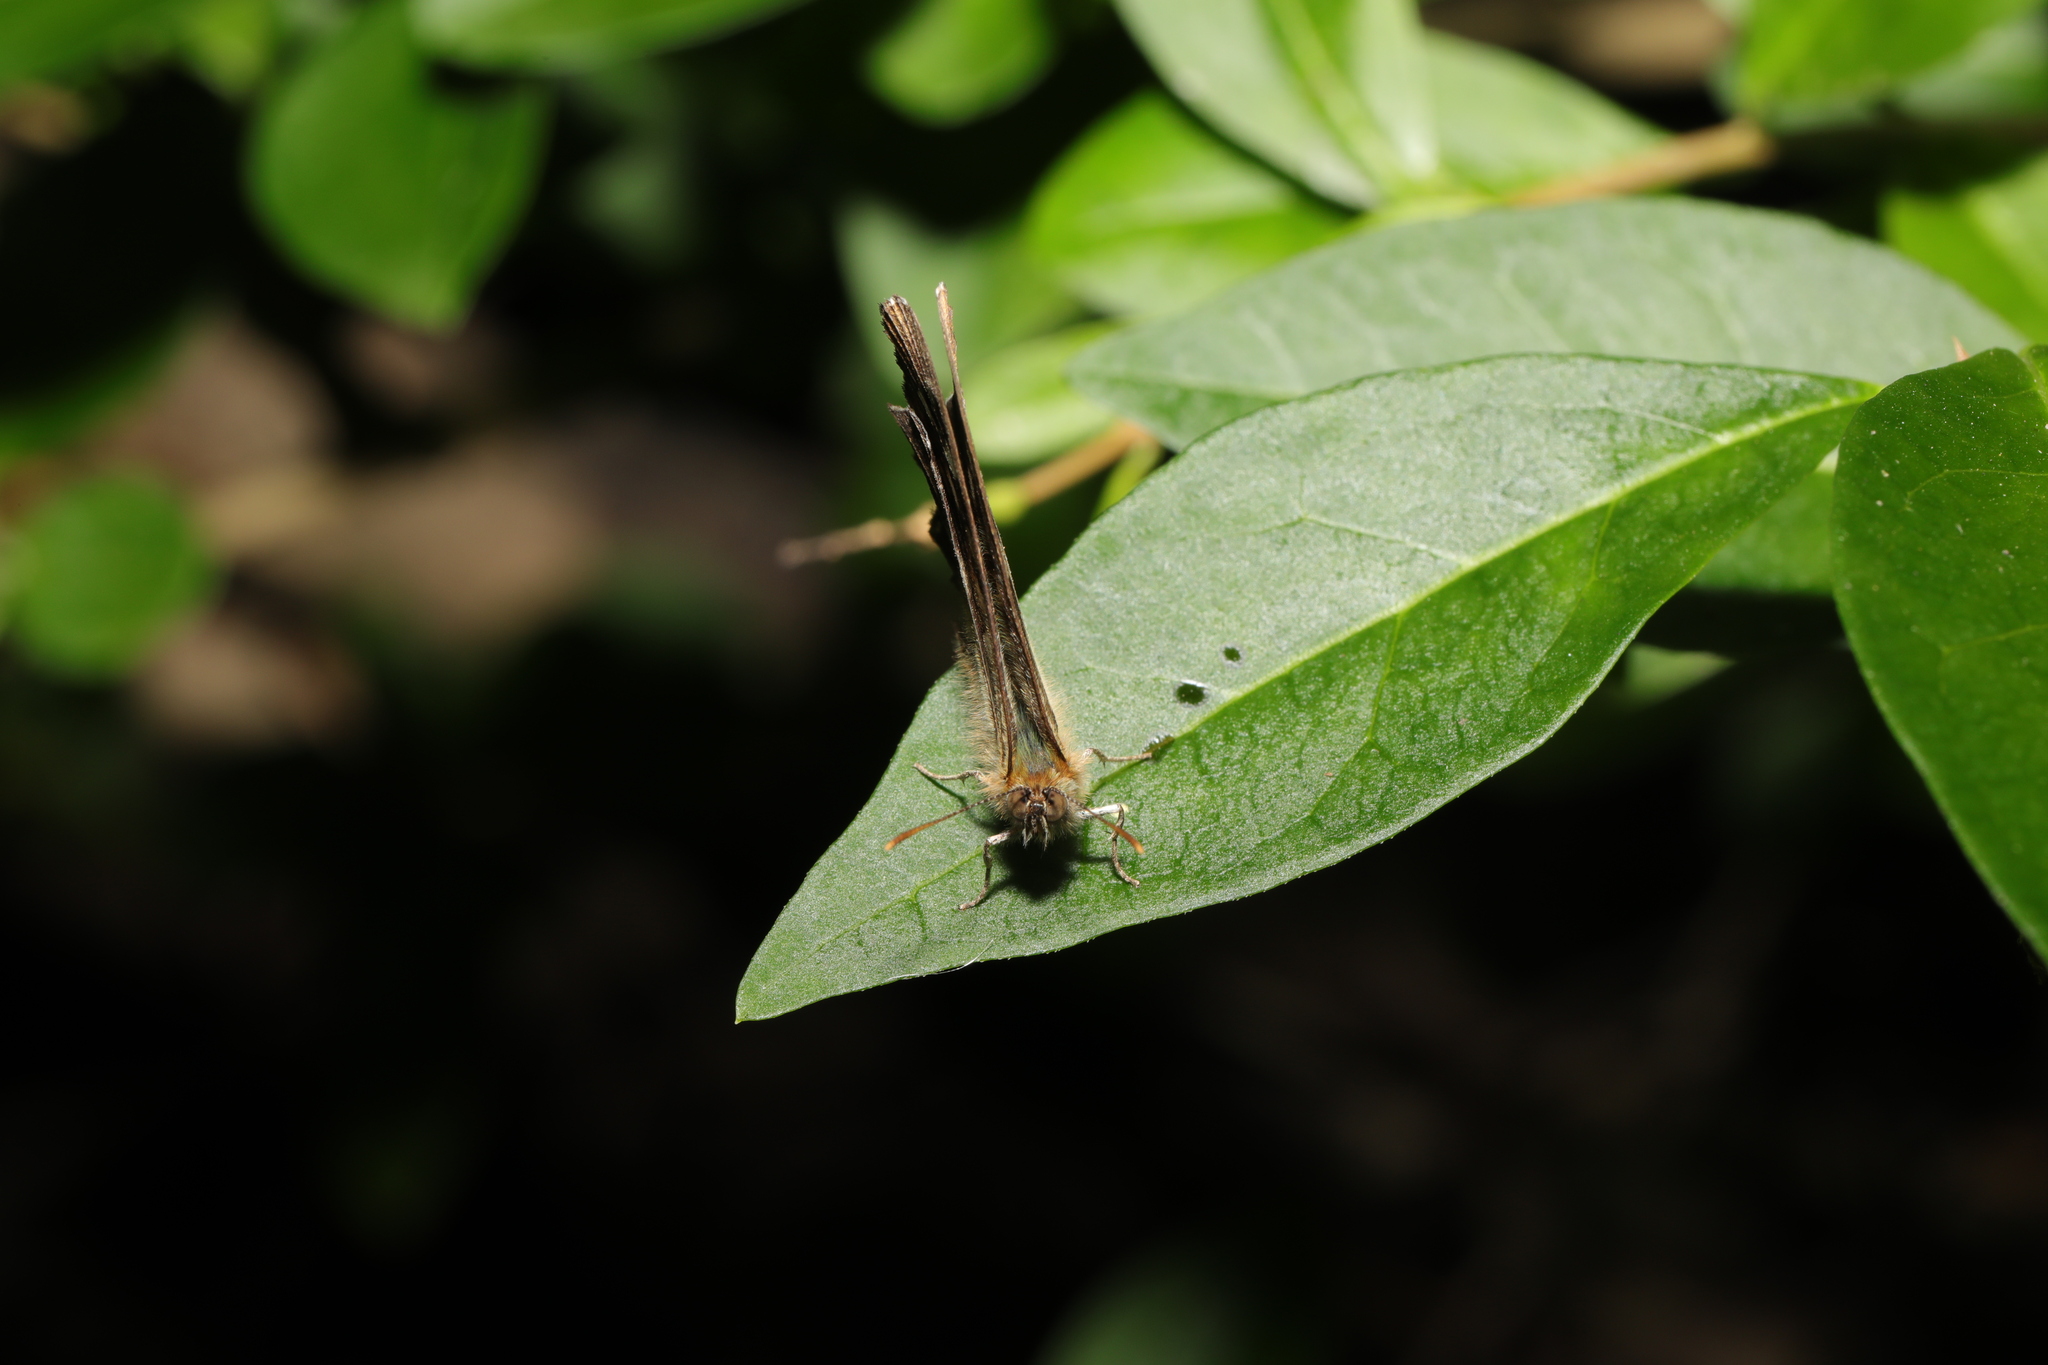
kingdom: Animalia
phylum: Arthropoda
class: Insecta
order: Lepidoptera
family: Nymphalidae
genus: Pararge
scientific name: Pararge aegeria
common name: Speckled wood
